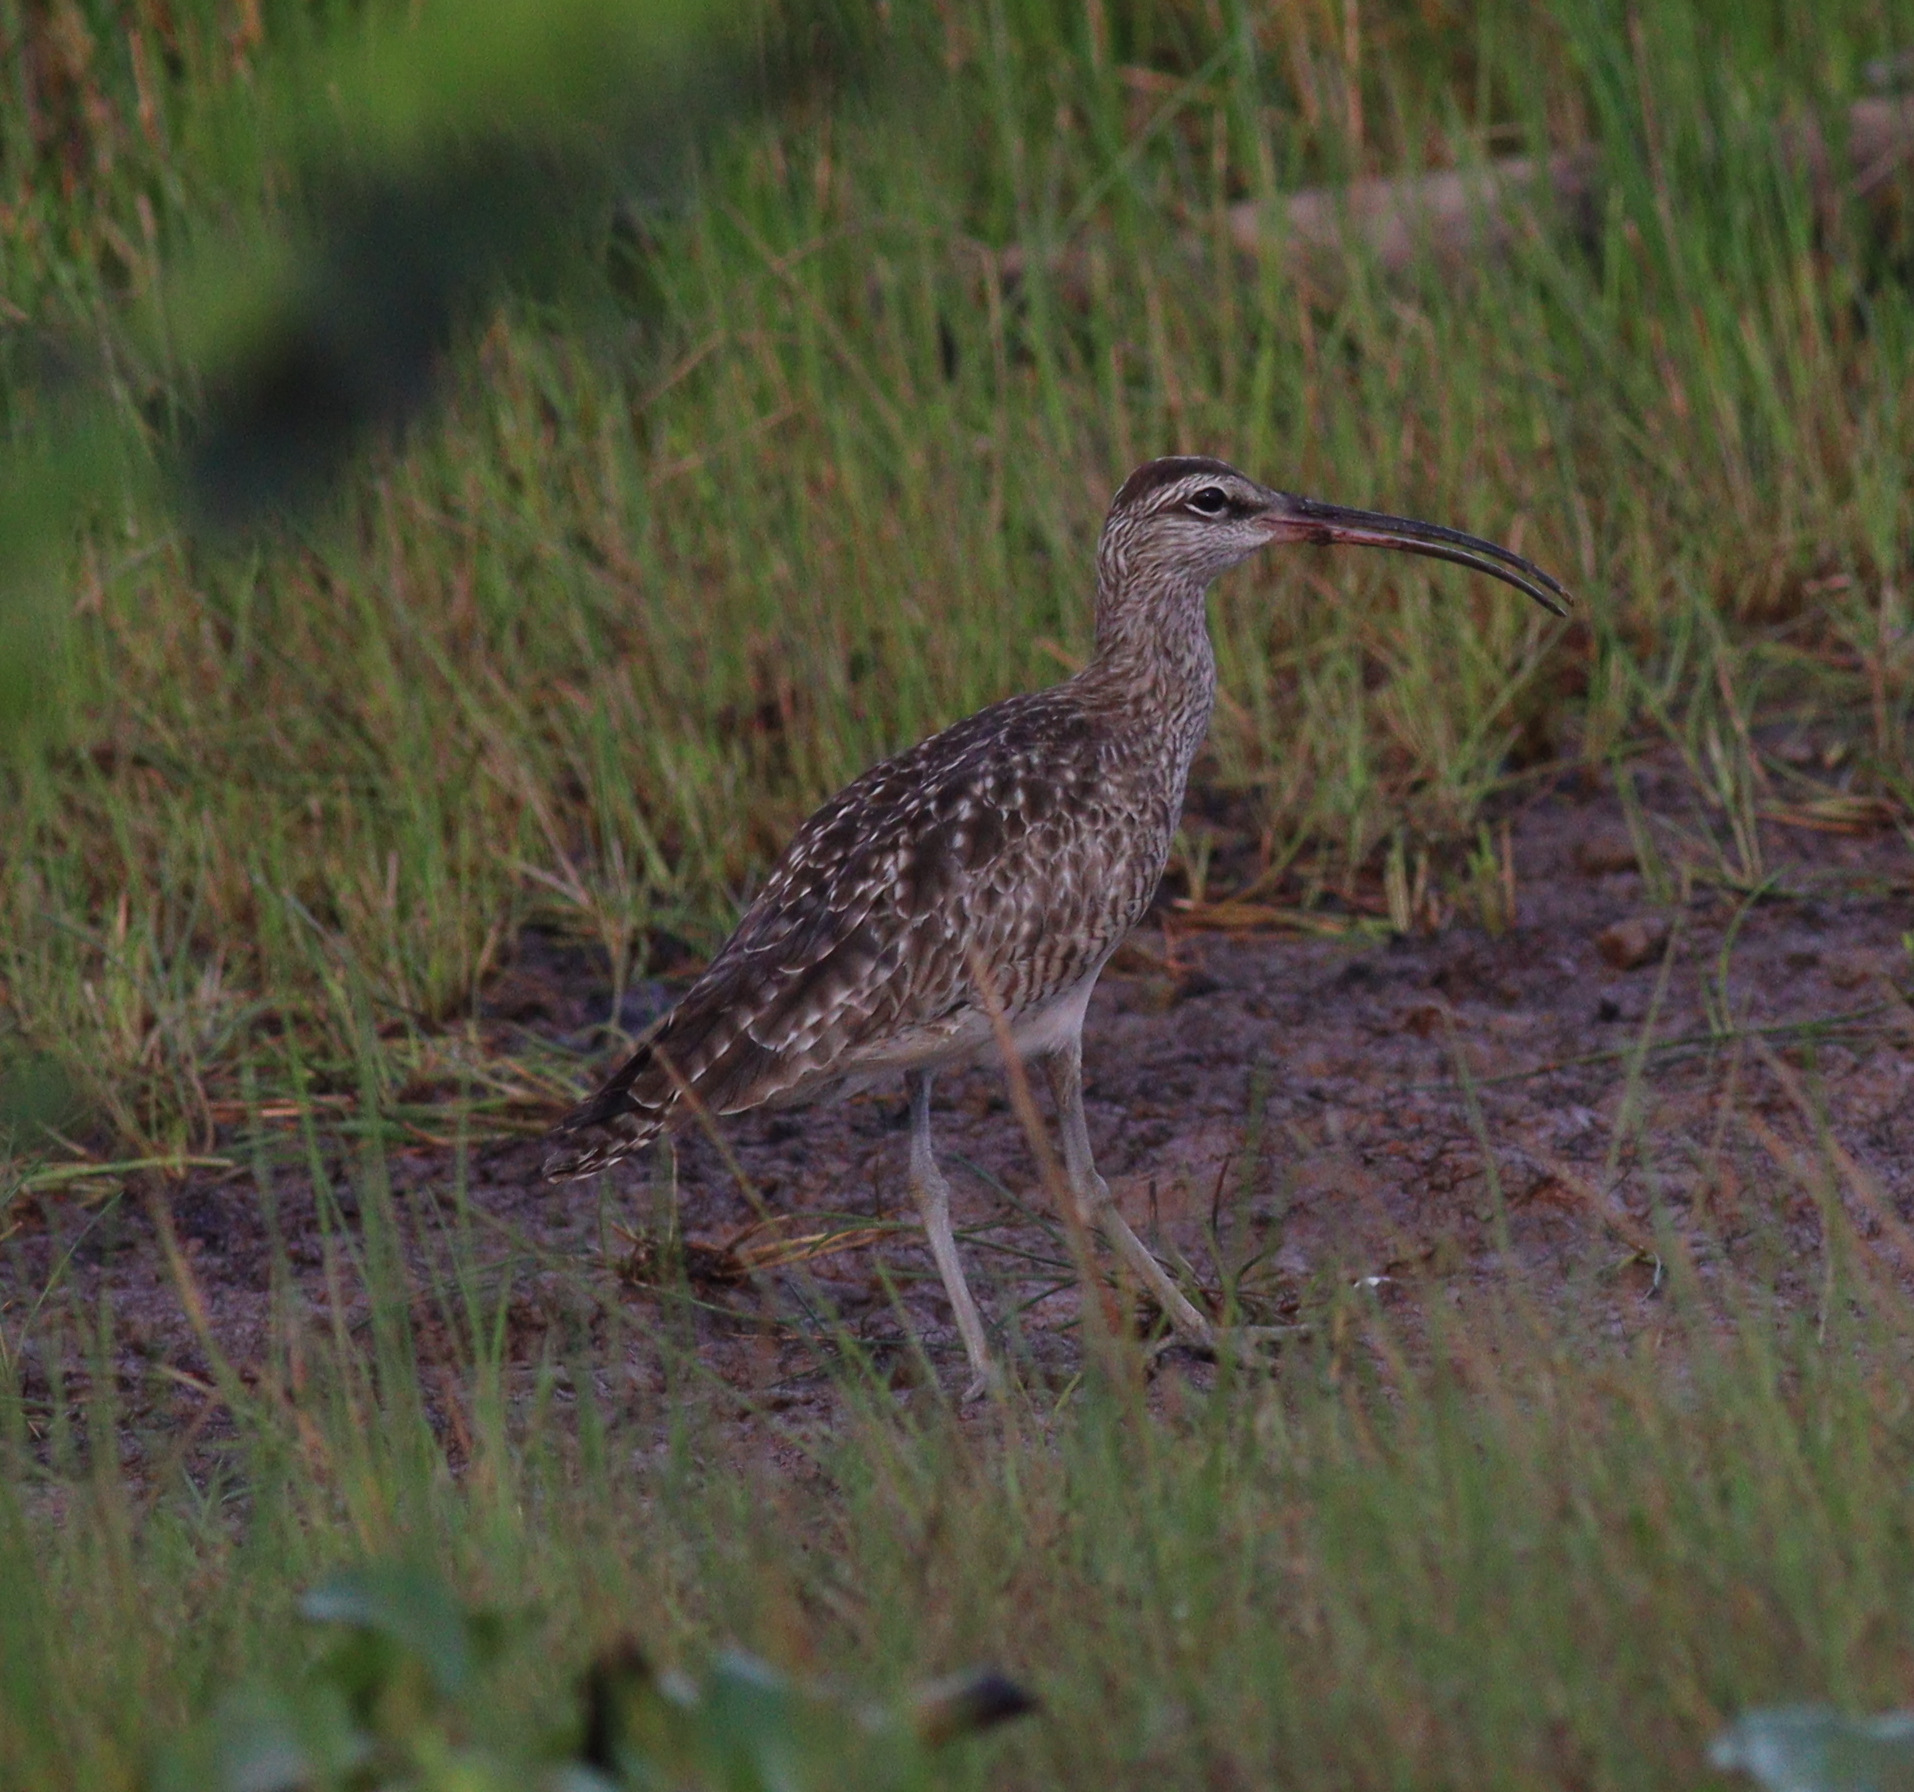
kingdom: Animalia
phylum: Chordata
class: Aves
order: Charadriiformes
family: Scolopacidae
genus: Numenius
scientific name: Numenius hudsonicus
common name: Hudsonian whimbrel
